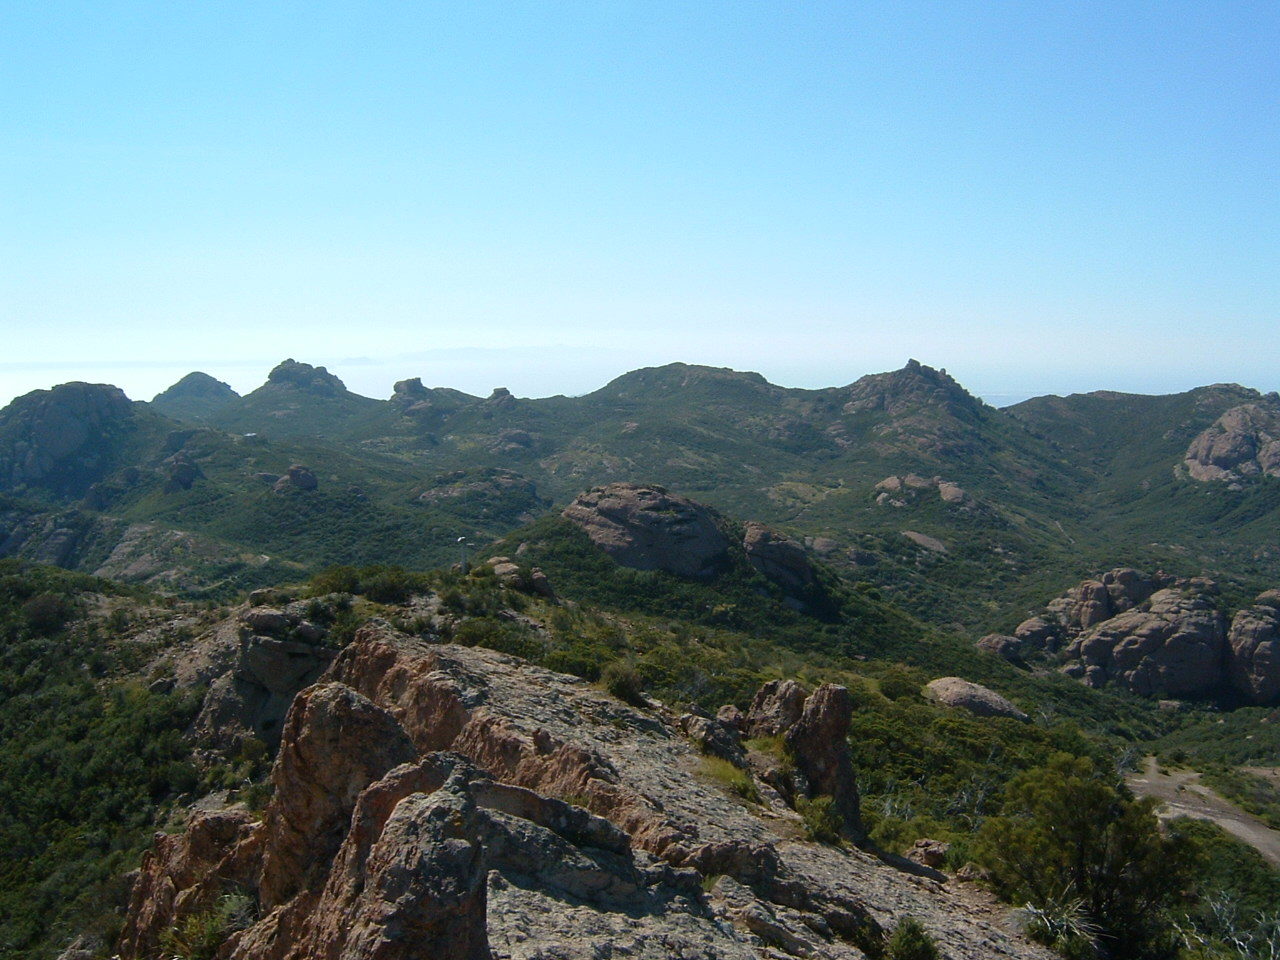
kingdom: Plantae
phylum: Tracheophyta
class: Magnoliopsida
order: Rosales
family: Rosaceae
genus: Adenostoma
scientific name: Adenostoma sparsifolium
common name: Red shank
